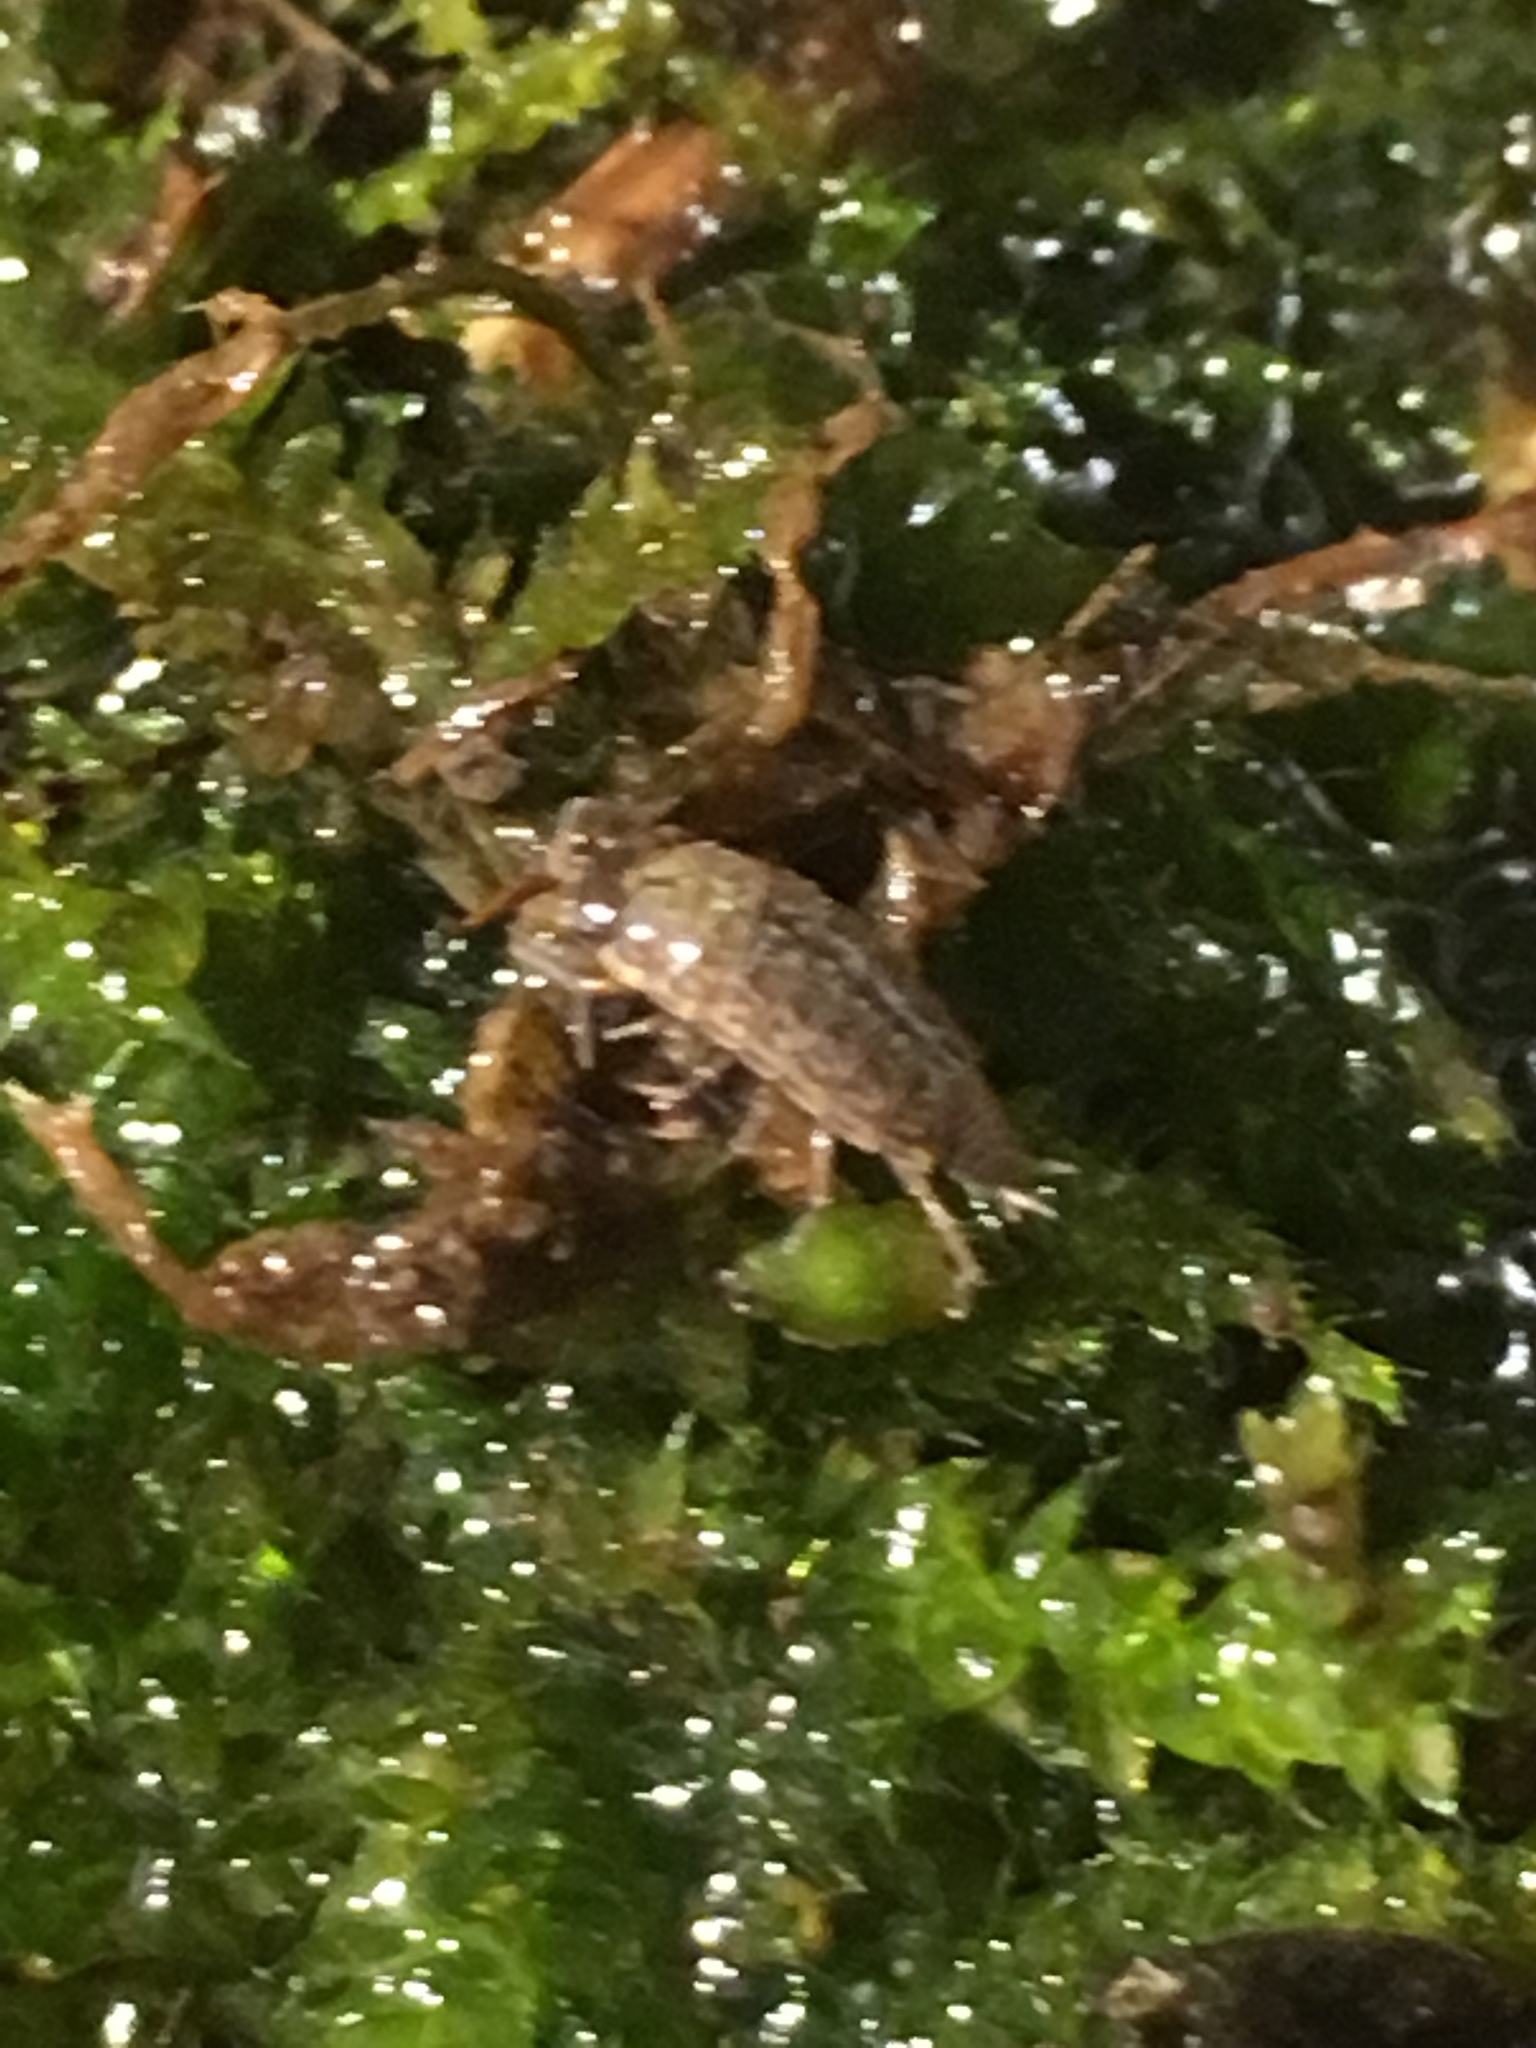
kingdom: Animalia
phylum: Arthropoda
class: Malacostraca
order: Isopoda
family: Philosciidae
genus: Philoscia
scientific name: Philoscia muscorum
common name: Common striped woodlouse
